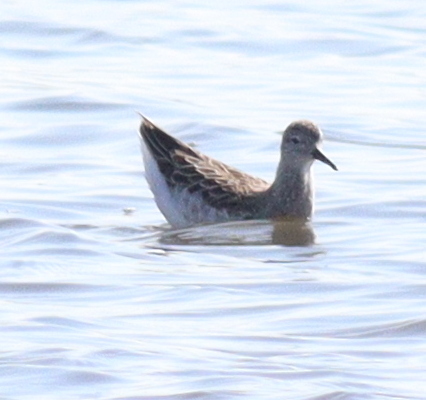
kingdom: Animalia
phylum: Chordata
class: Aves
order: Charadriiformes
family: Scolopacidae
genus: Calidris
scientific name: Calidris pugnax
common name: Ruff
